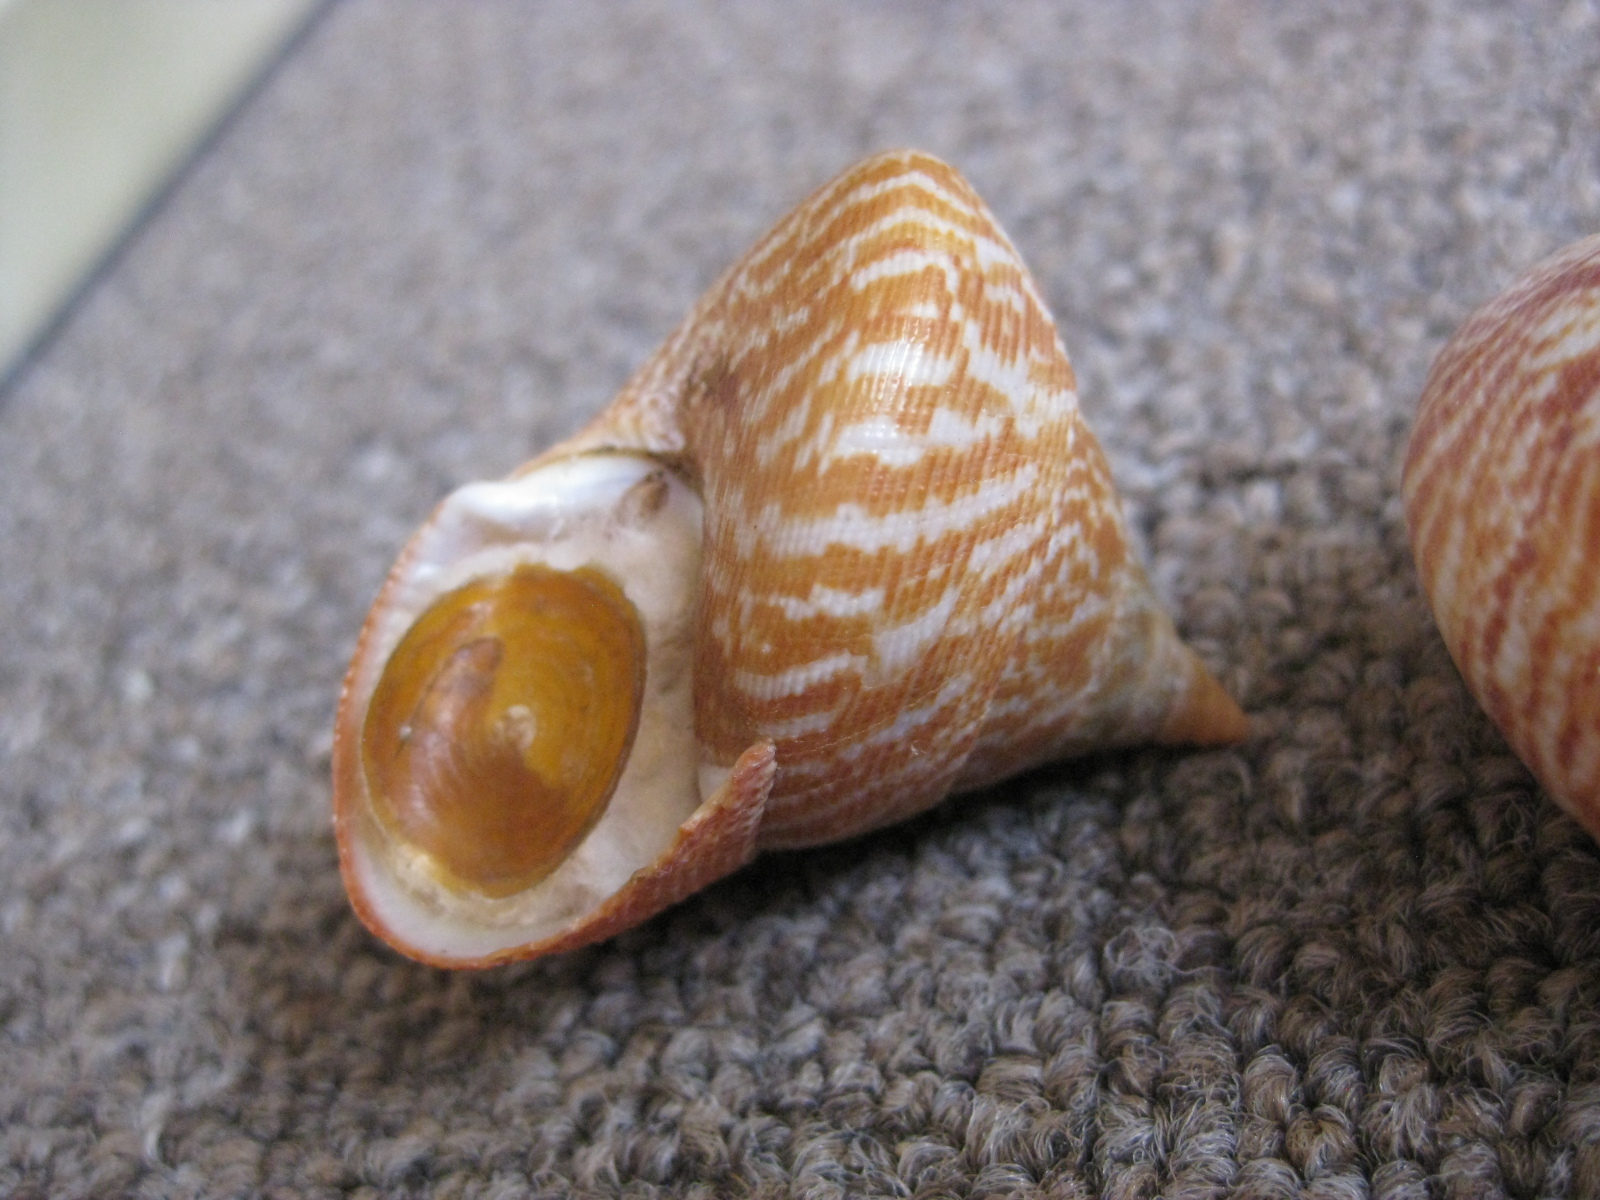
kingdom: Animalia
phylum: Mollusca
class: Gastropoda
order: Trochida
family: Calliostomatidae
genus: Maurea
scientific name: Maurea tigris
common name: Tiger maurea
